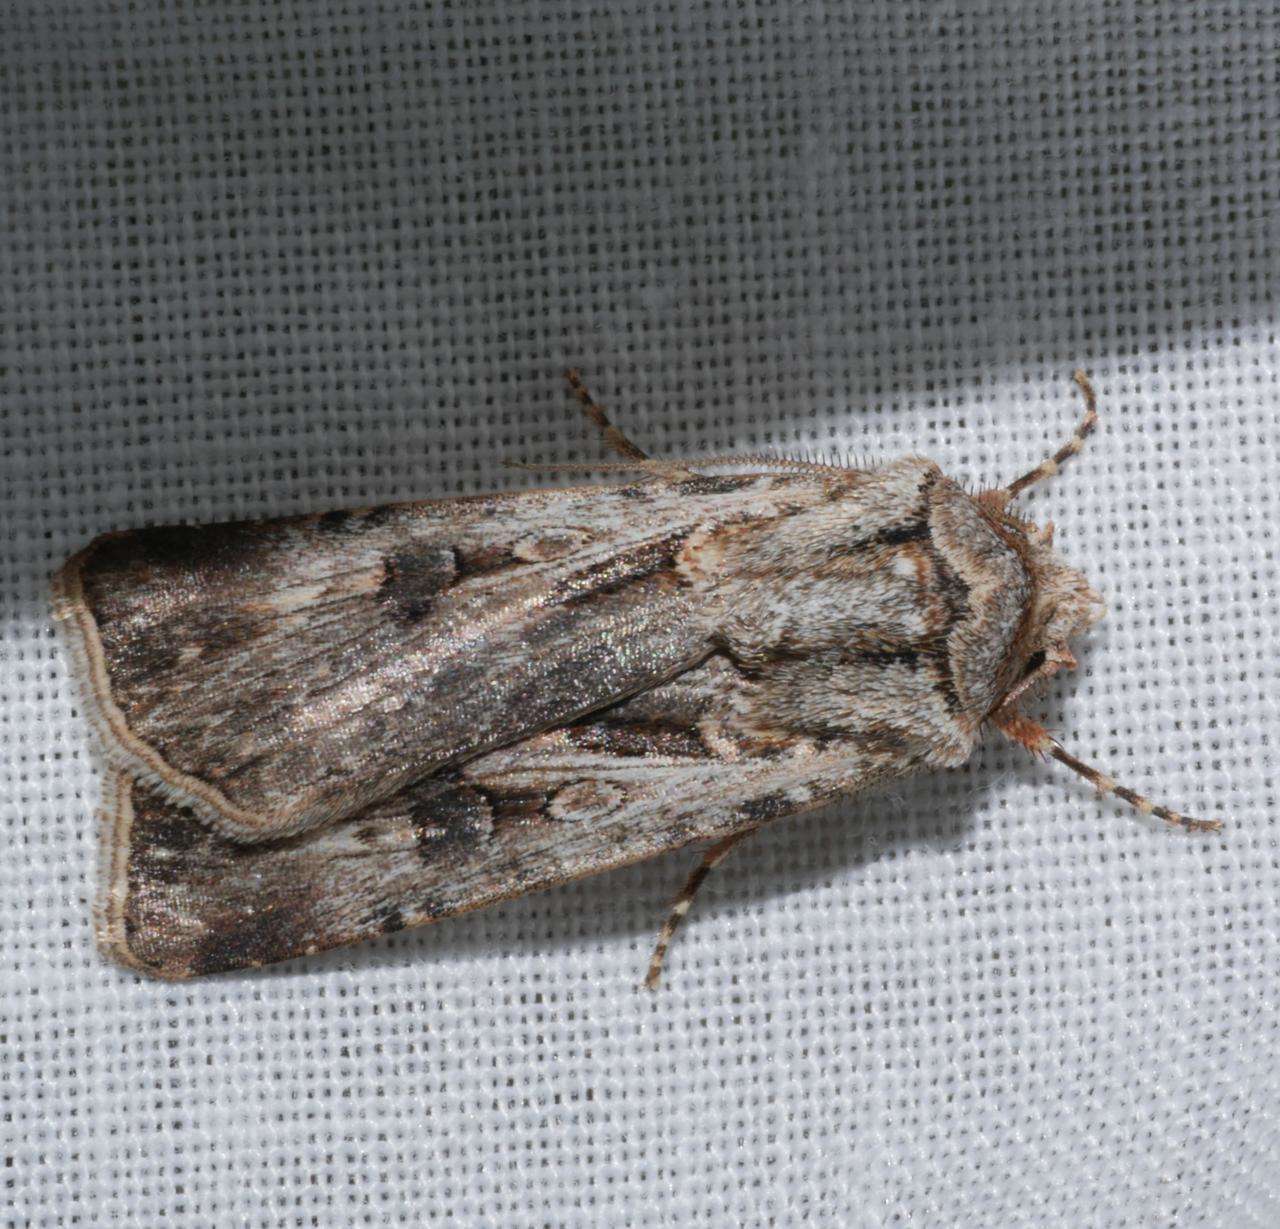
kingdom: Animalia
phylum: Arthropoda
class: Insecta
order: Lepidoptera
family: Noctuidae
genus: Agrotis
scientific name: Agrotis munda
